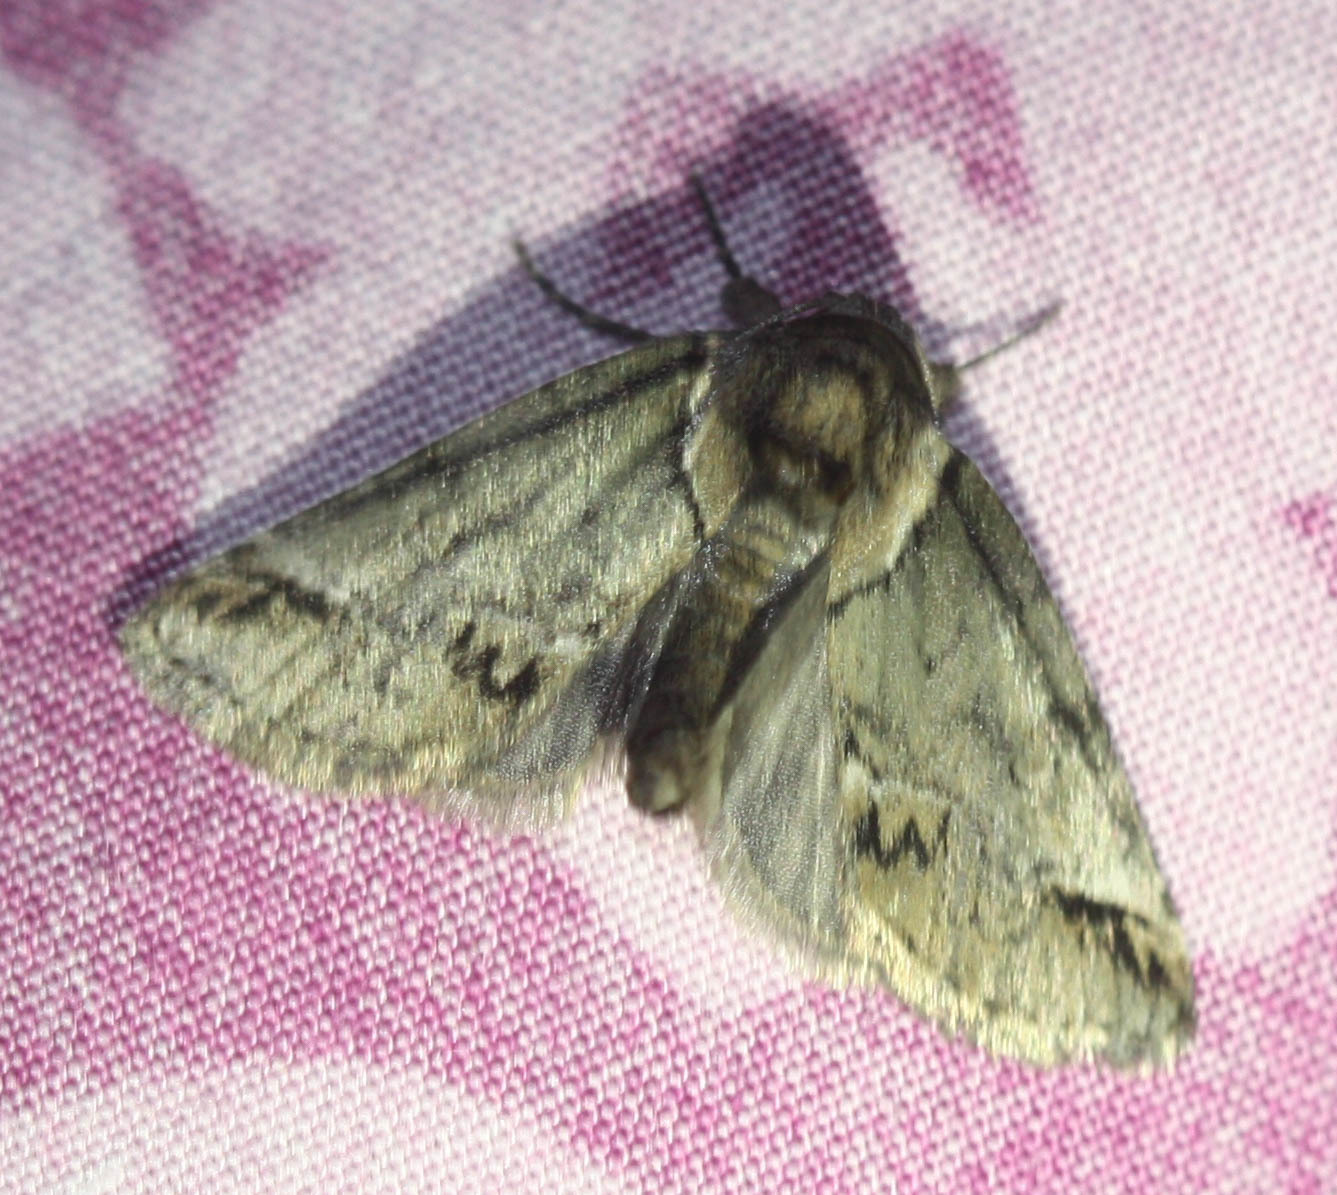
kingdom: Animalia
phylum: Arthropoda
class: Insecta
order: Lepidoptera
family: Nolidae
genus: Baileya
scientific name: Baileya australis
